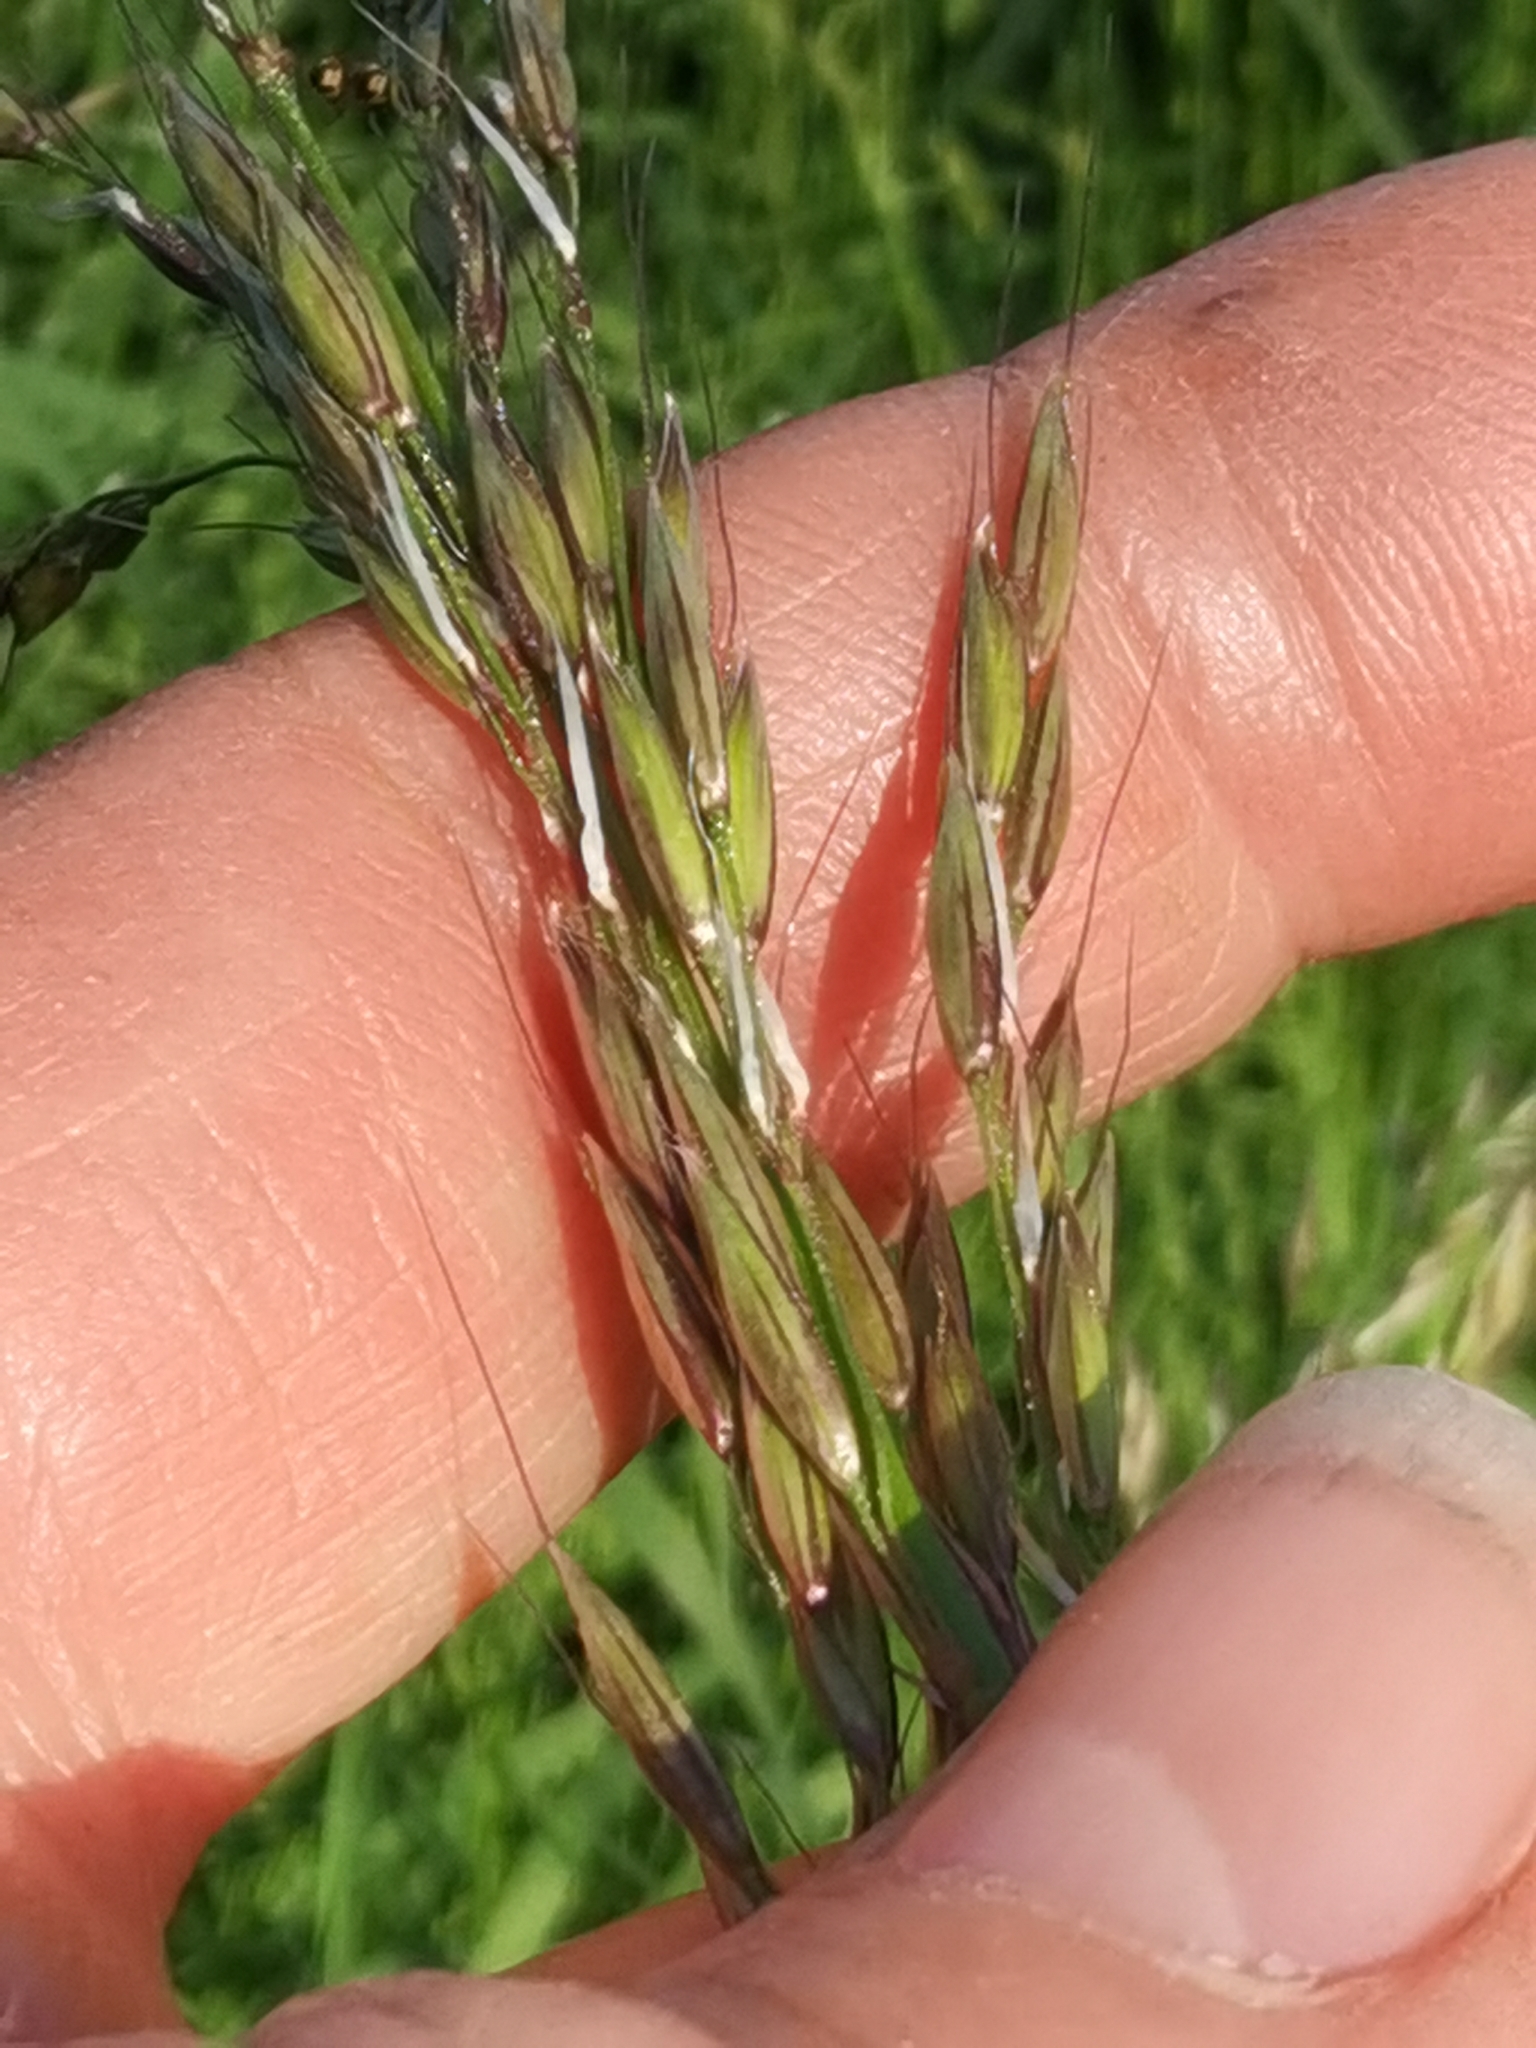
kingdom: Plantae
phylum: Tracheophyta
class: Liliopsida
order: Poales
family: Poaceae
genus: Arrhenatherum
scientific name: Arrhenatherum elatius
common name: Tall oatgrass
